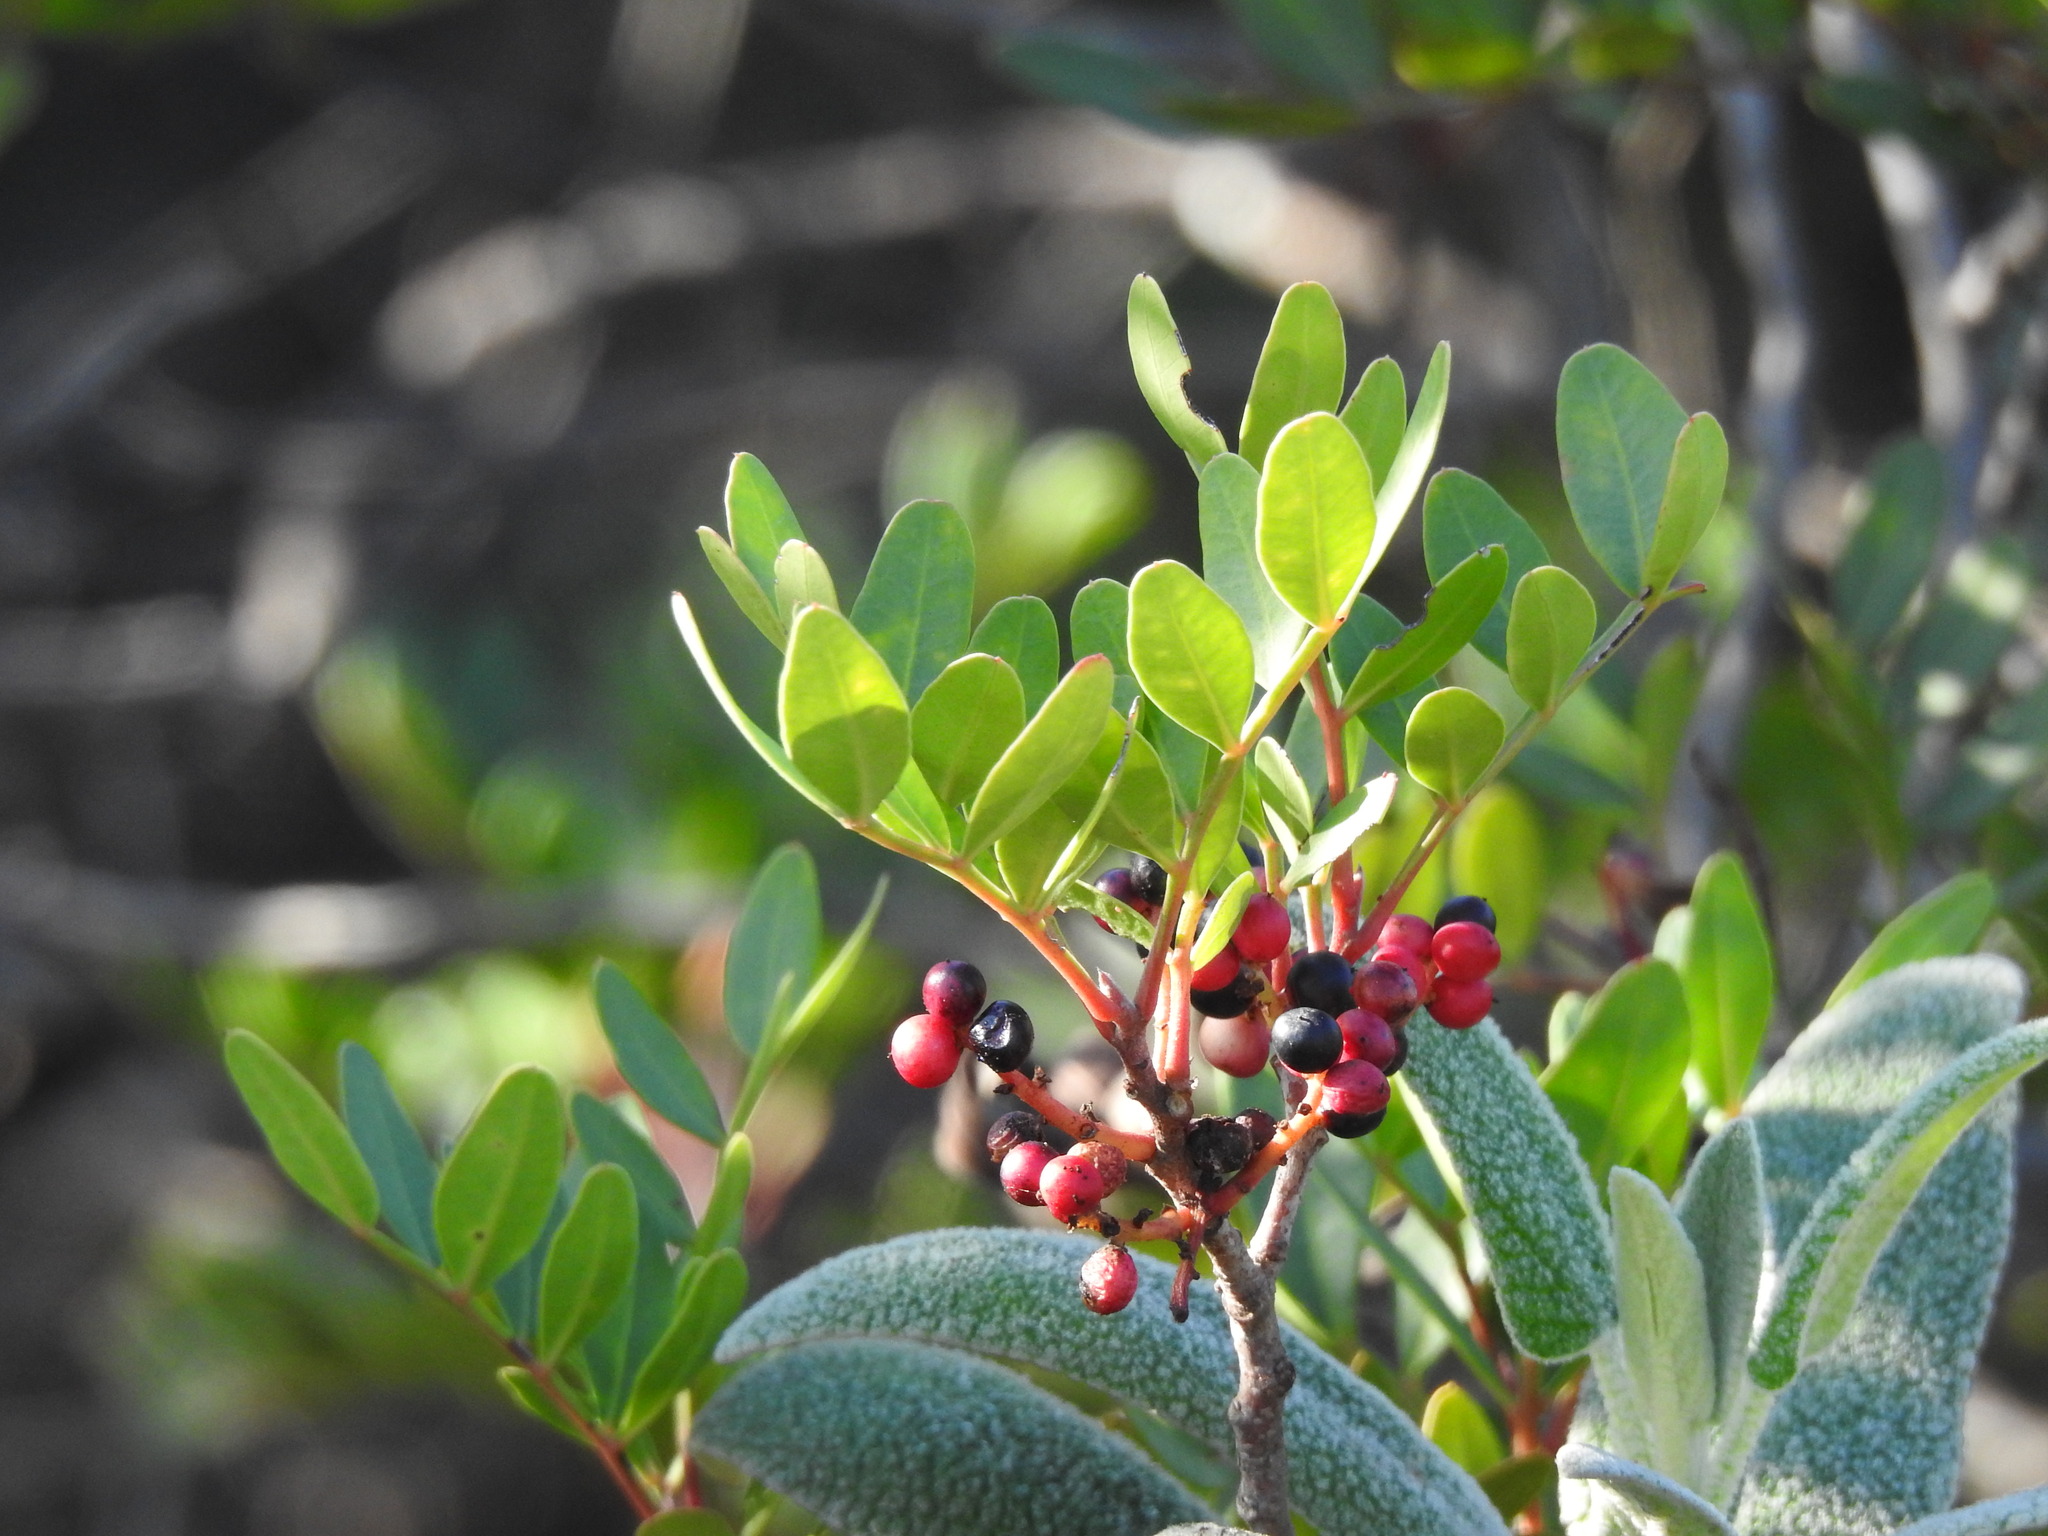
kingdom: Plantae
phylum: Tracheophyta
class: Magnoliopsida
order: Sapindales
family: Anacardiaceae
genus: Pistacia
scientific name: Pistacia lentiscus
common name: Lentisk
